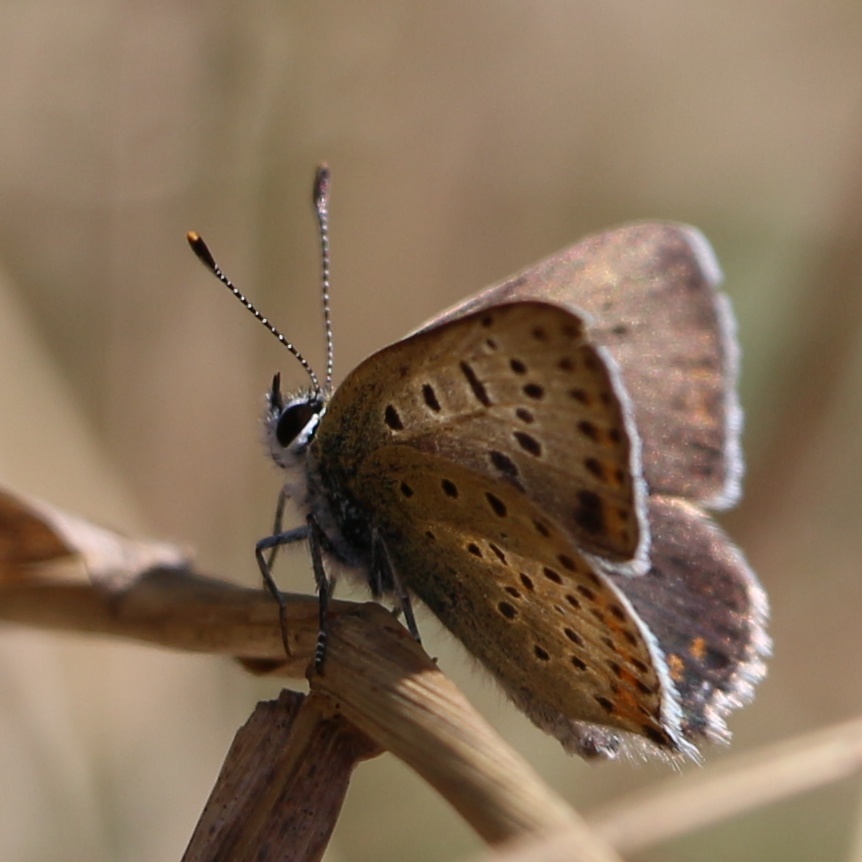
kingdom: Animalia
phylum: Arthropoda
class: Insecta
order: Lepidoptera
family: Lycaenidae
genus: Loweia
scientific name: Loweia tityrus
